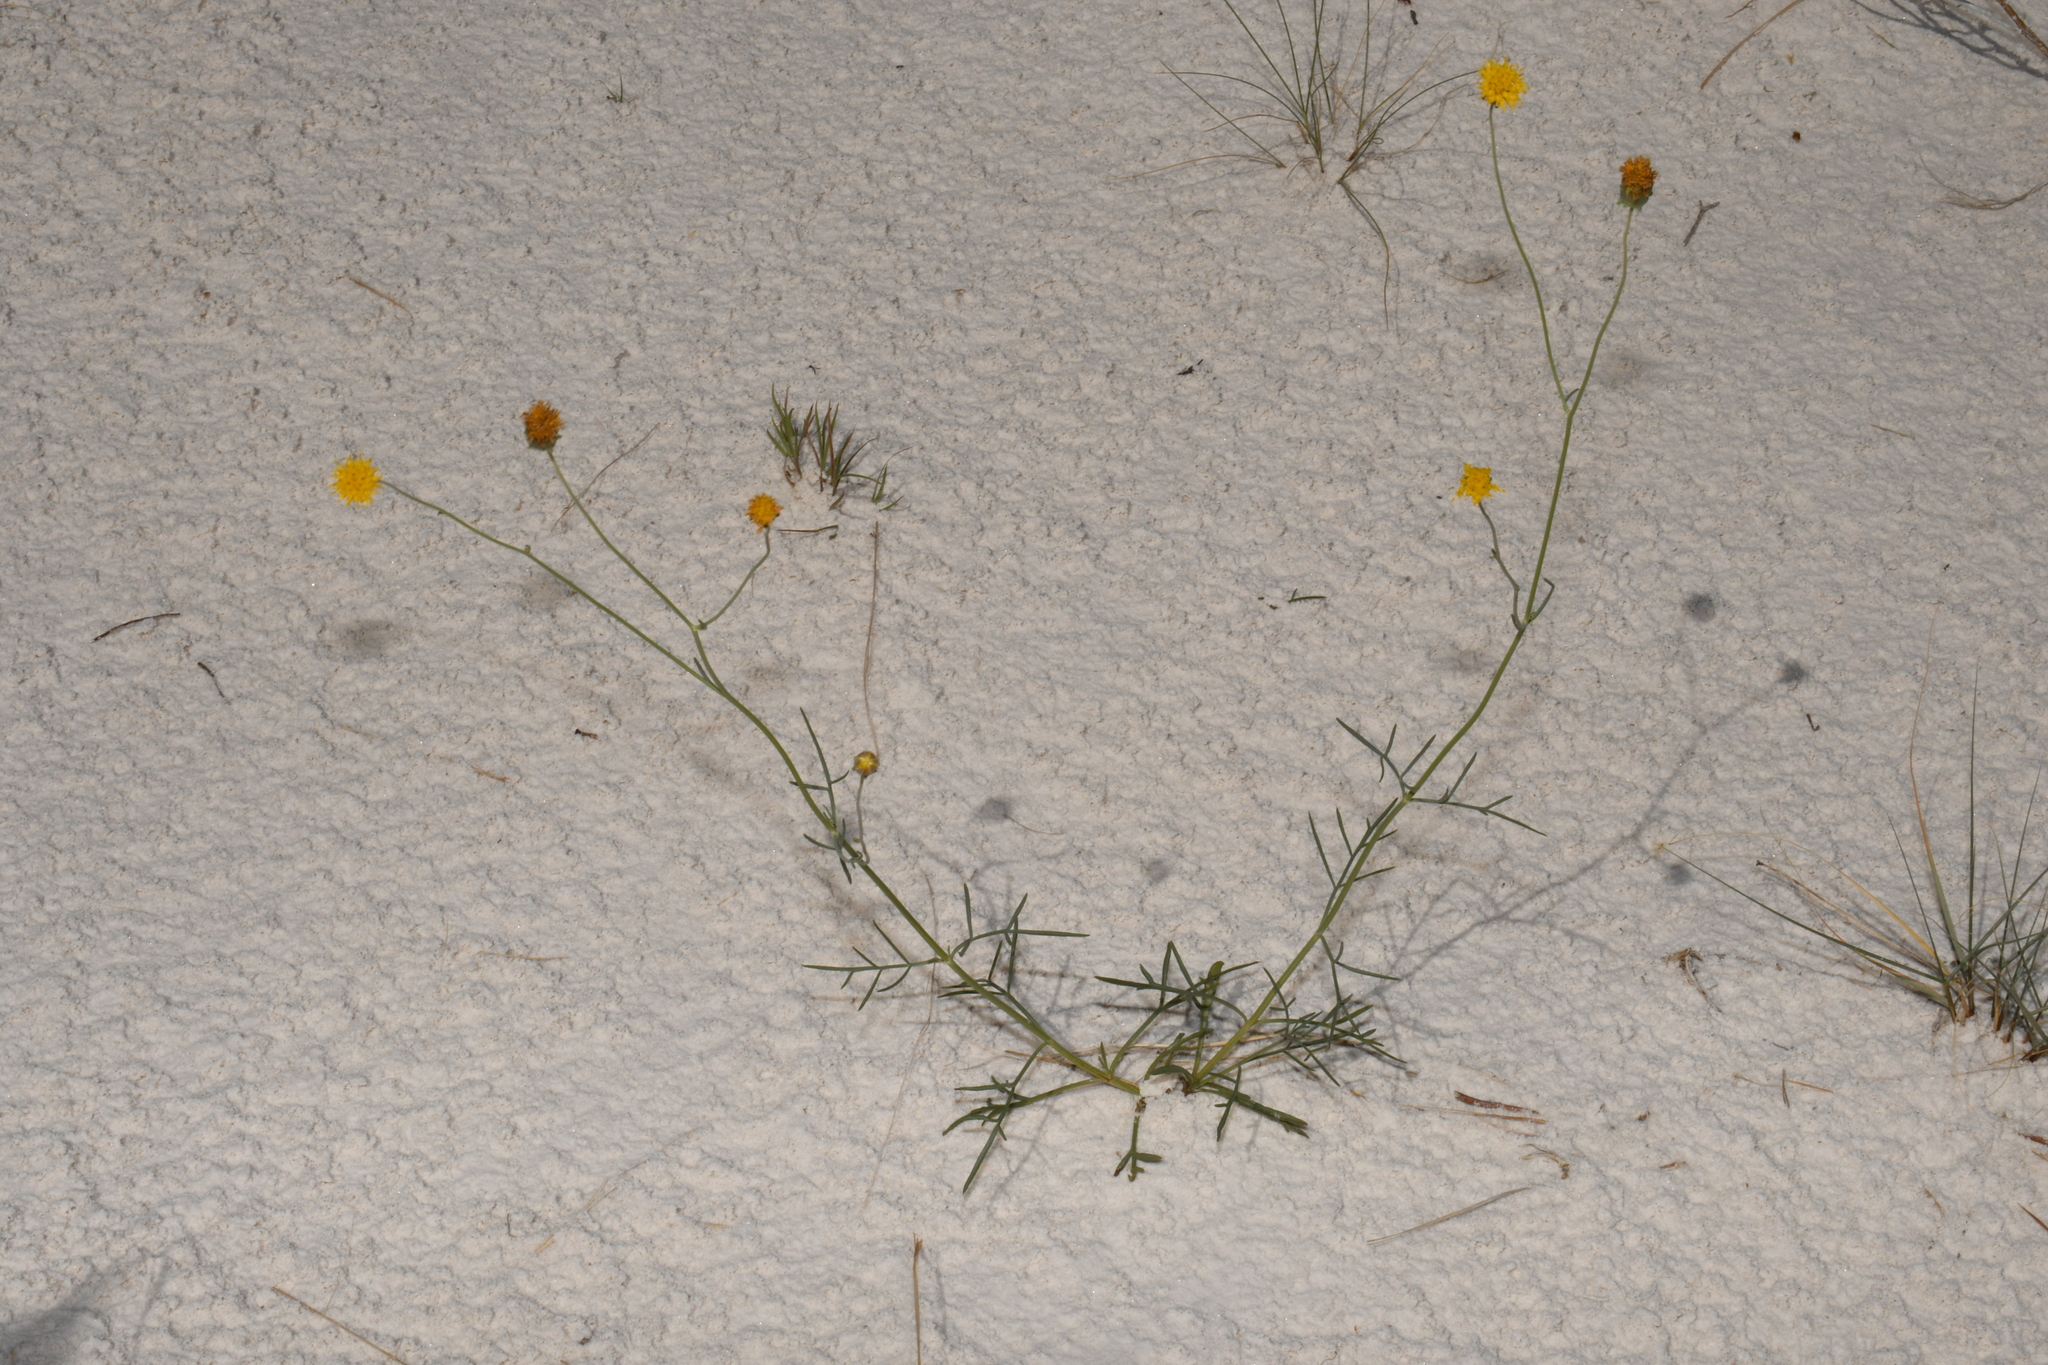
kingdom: Plantae
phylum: Tracheophyta
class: Magnoliopsida
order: Asterales
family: Asteraceae
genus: Thelesperma
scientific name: Thelesperma megapotamicum
